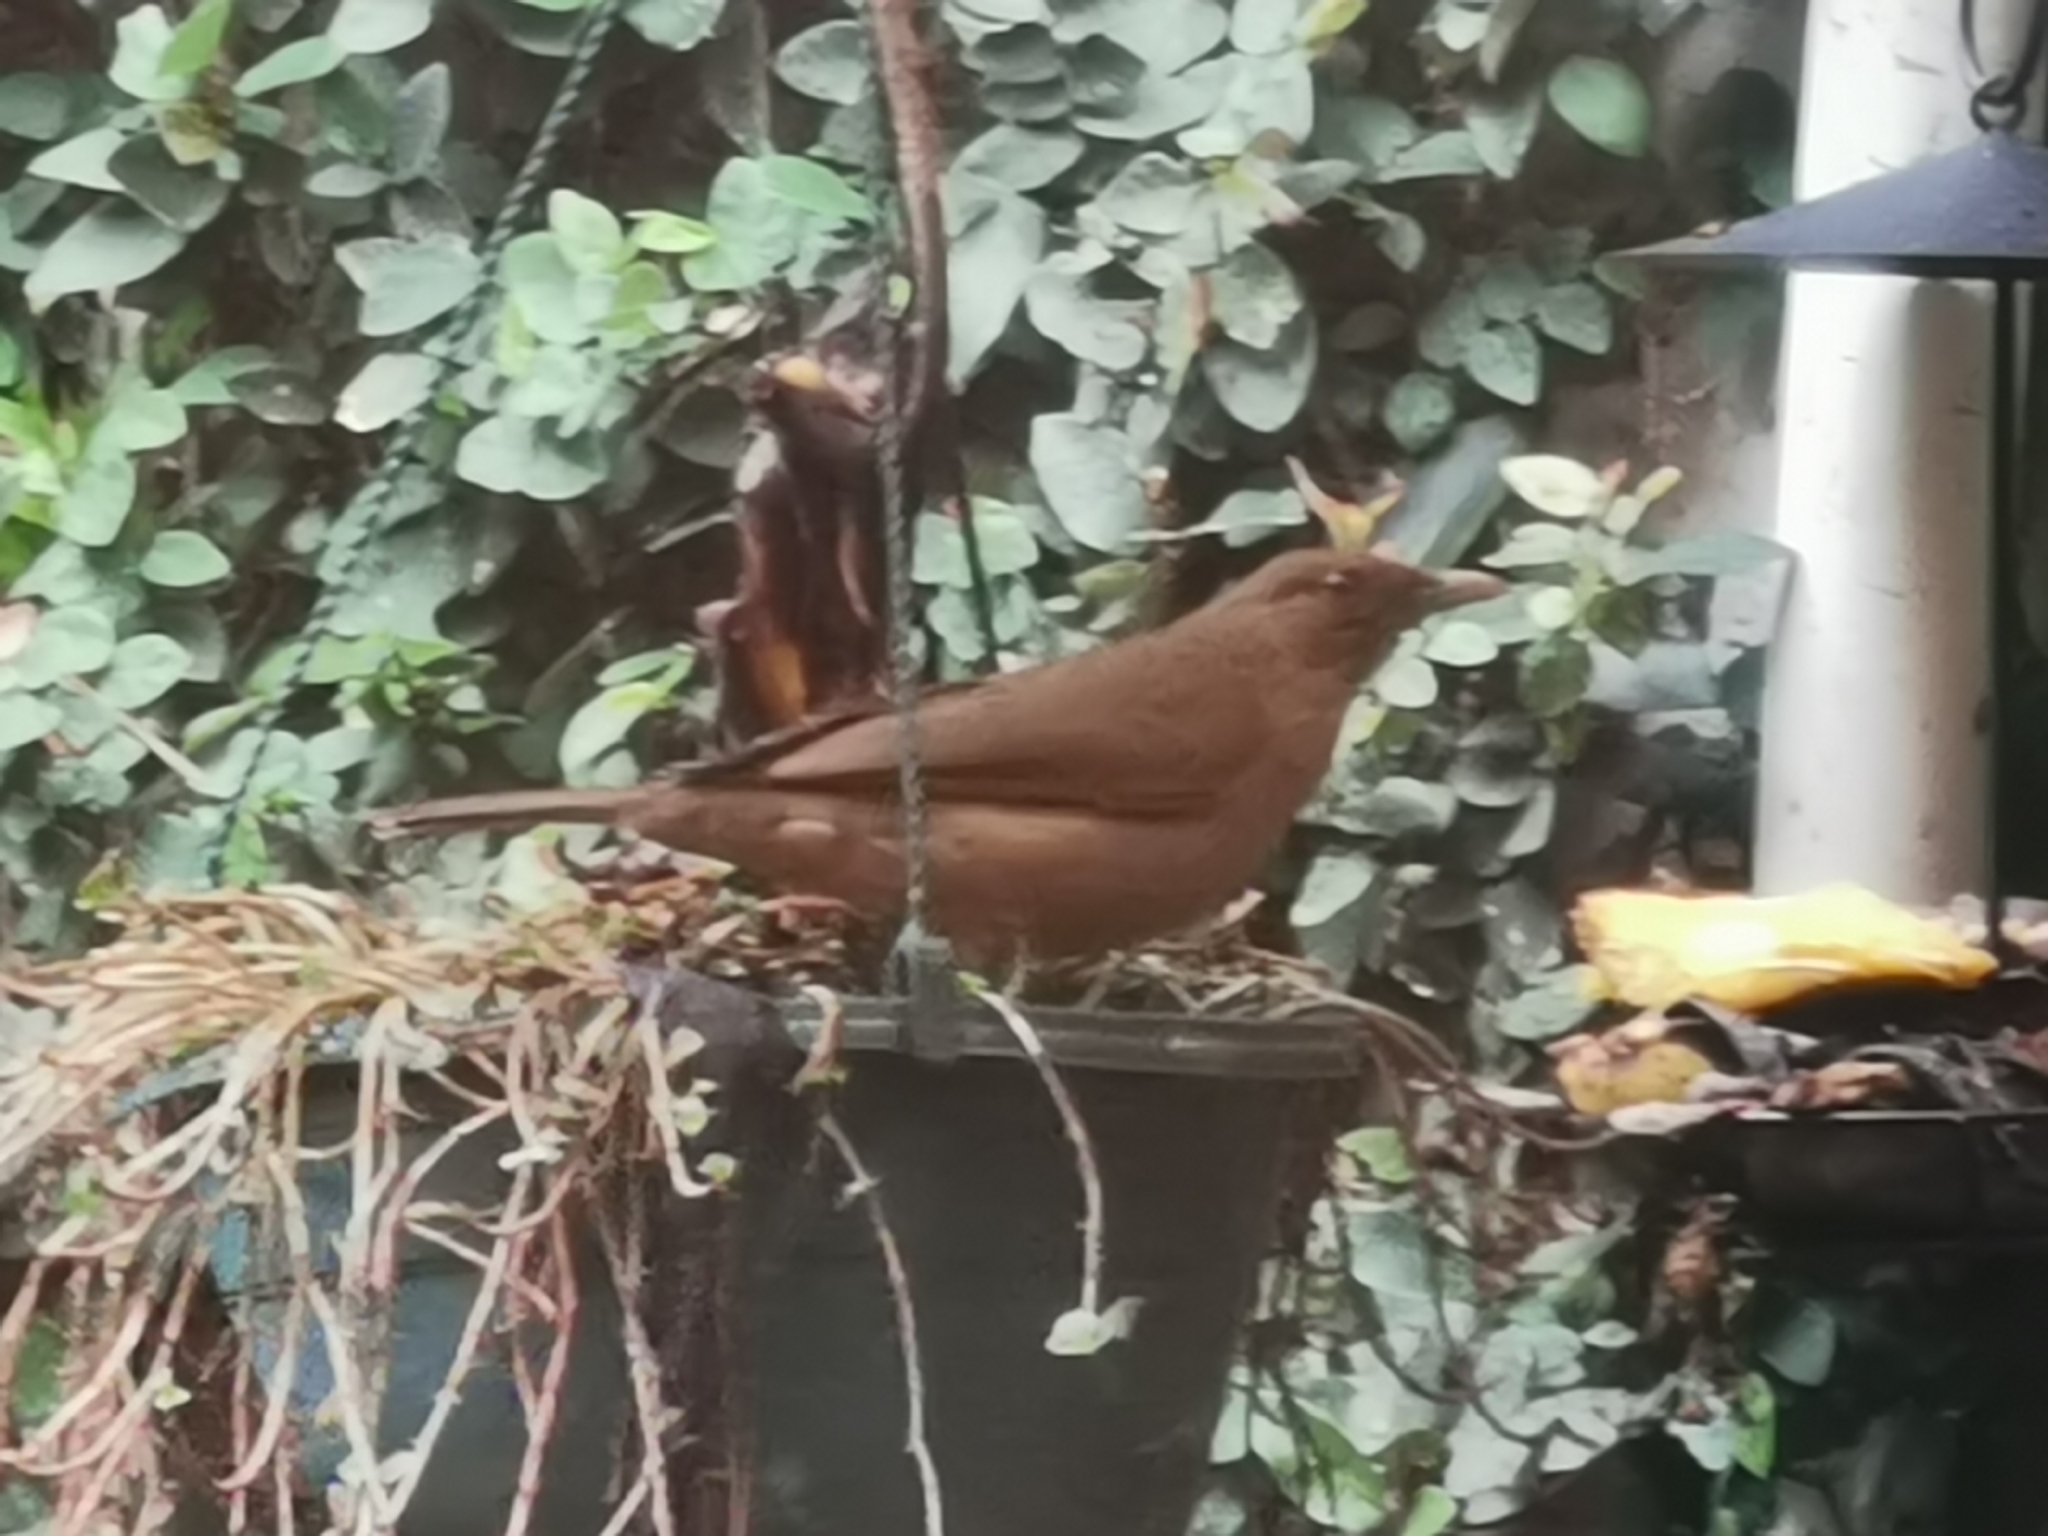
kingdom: Animalia
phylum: Chordata
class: Aves
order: Passeriformes
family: Turdidae
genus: Turdus
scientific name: Turdus grayi
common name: Clay-colored thrush
